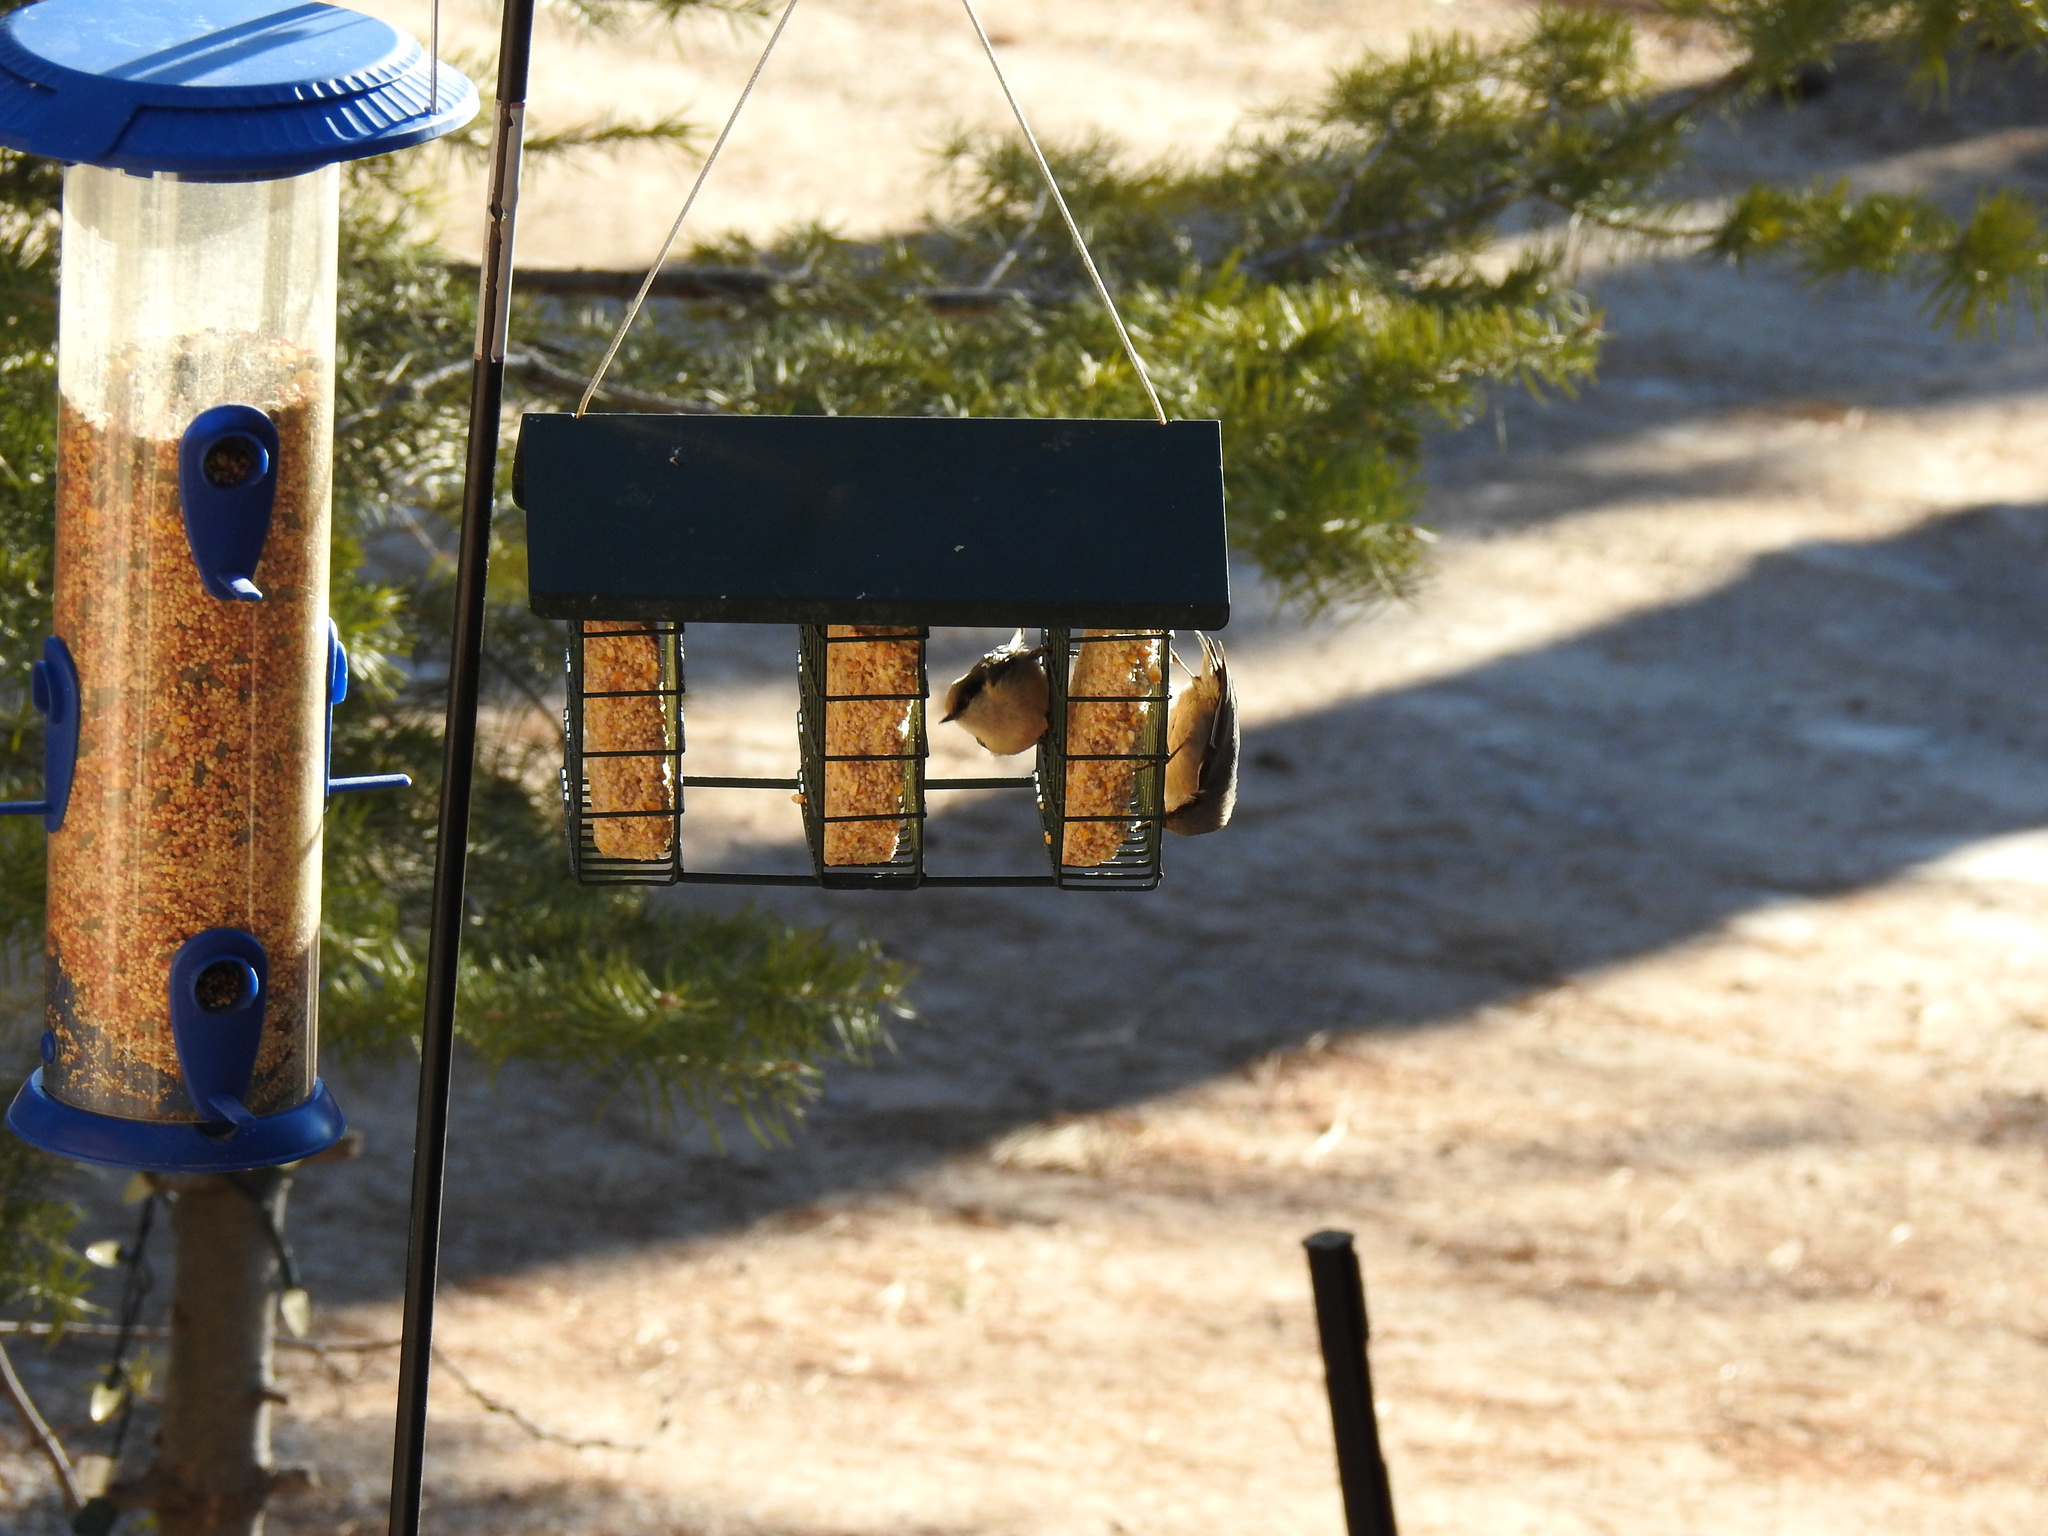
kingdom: Animalia
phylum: Chordata
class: Aves
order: Passeriformes
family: Sittidae
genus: Sitta
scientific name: Sitta pygmaea
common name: Pygmy nuthatch
